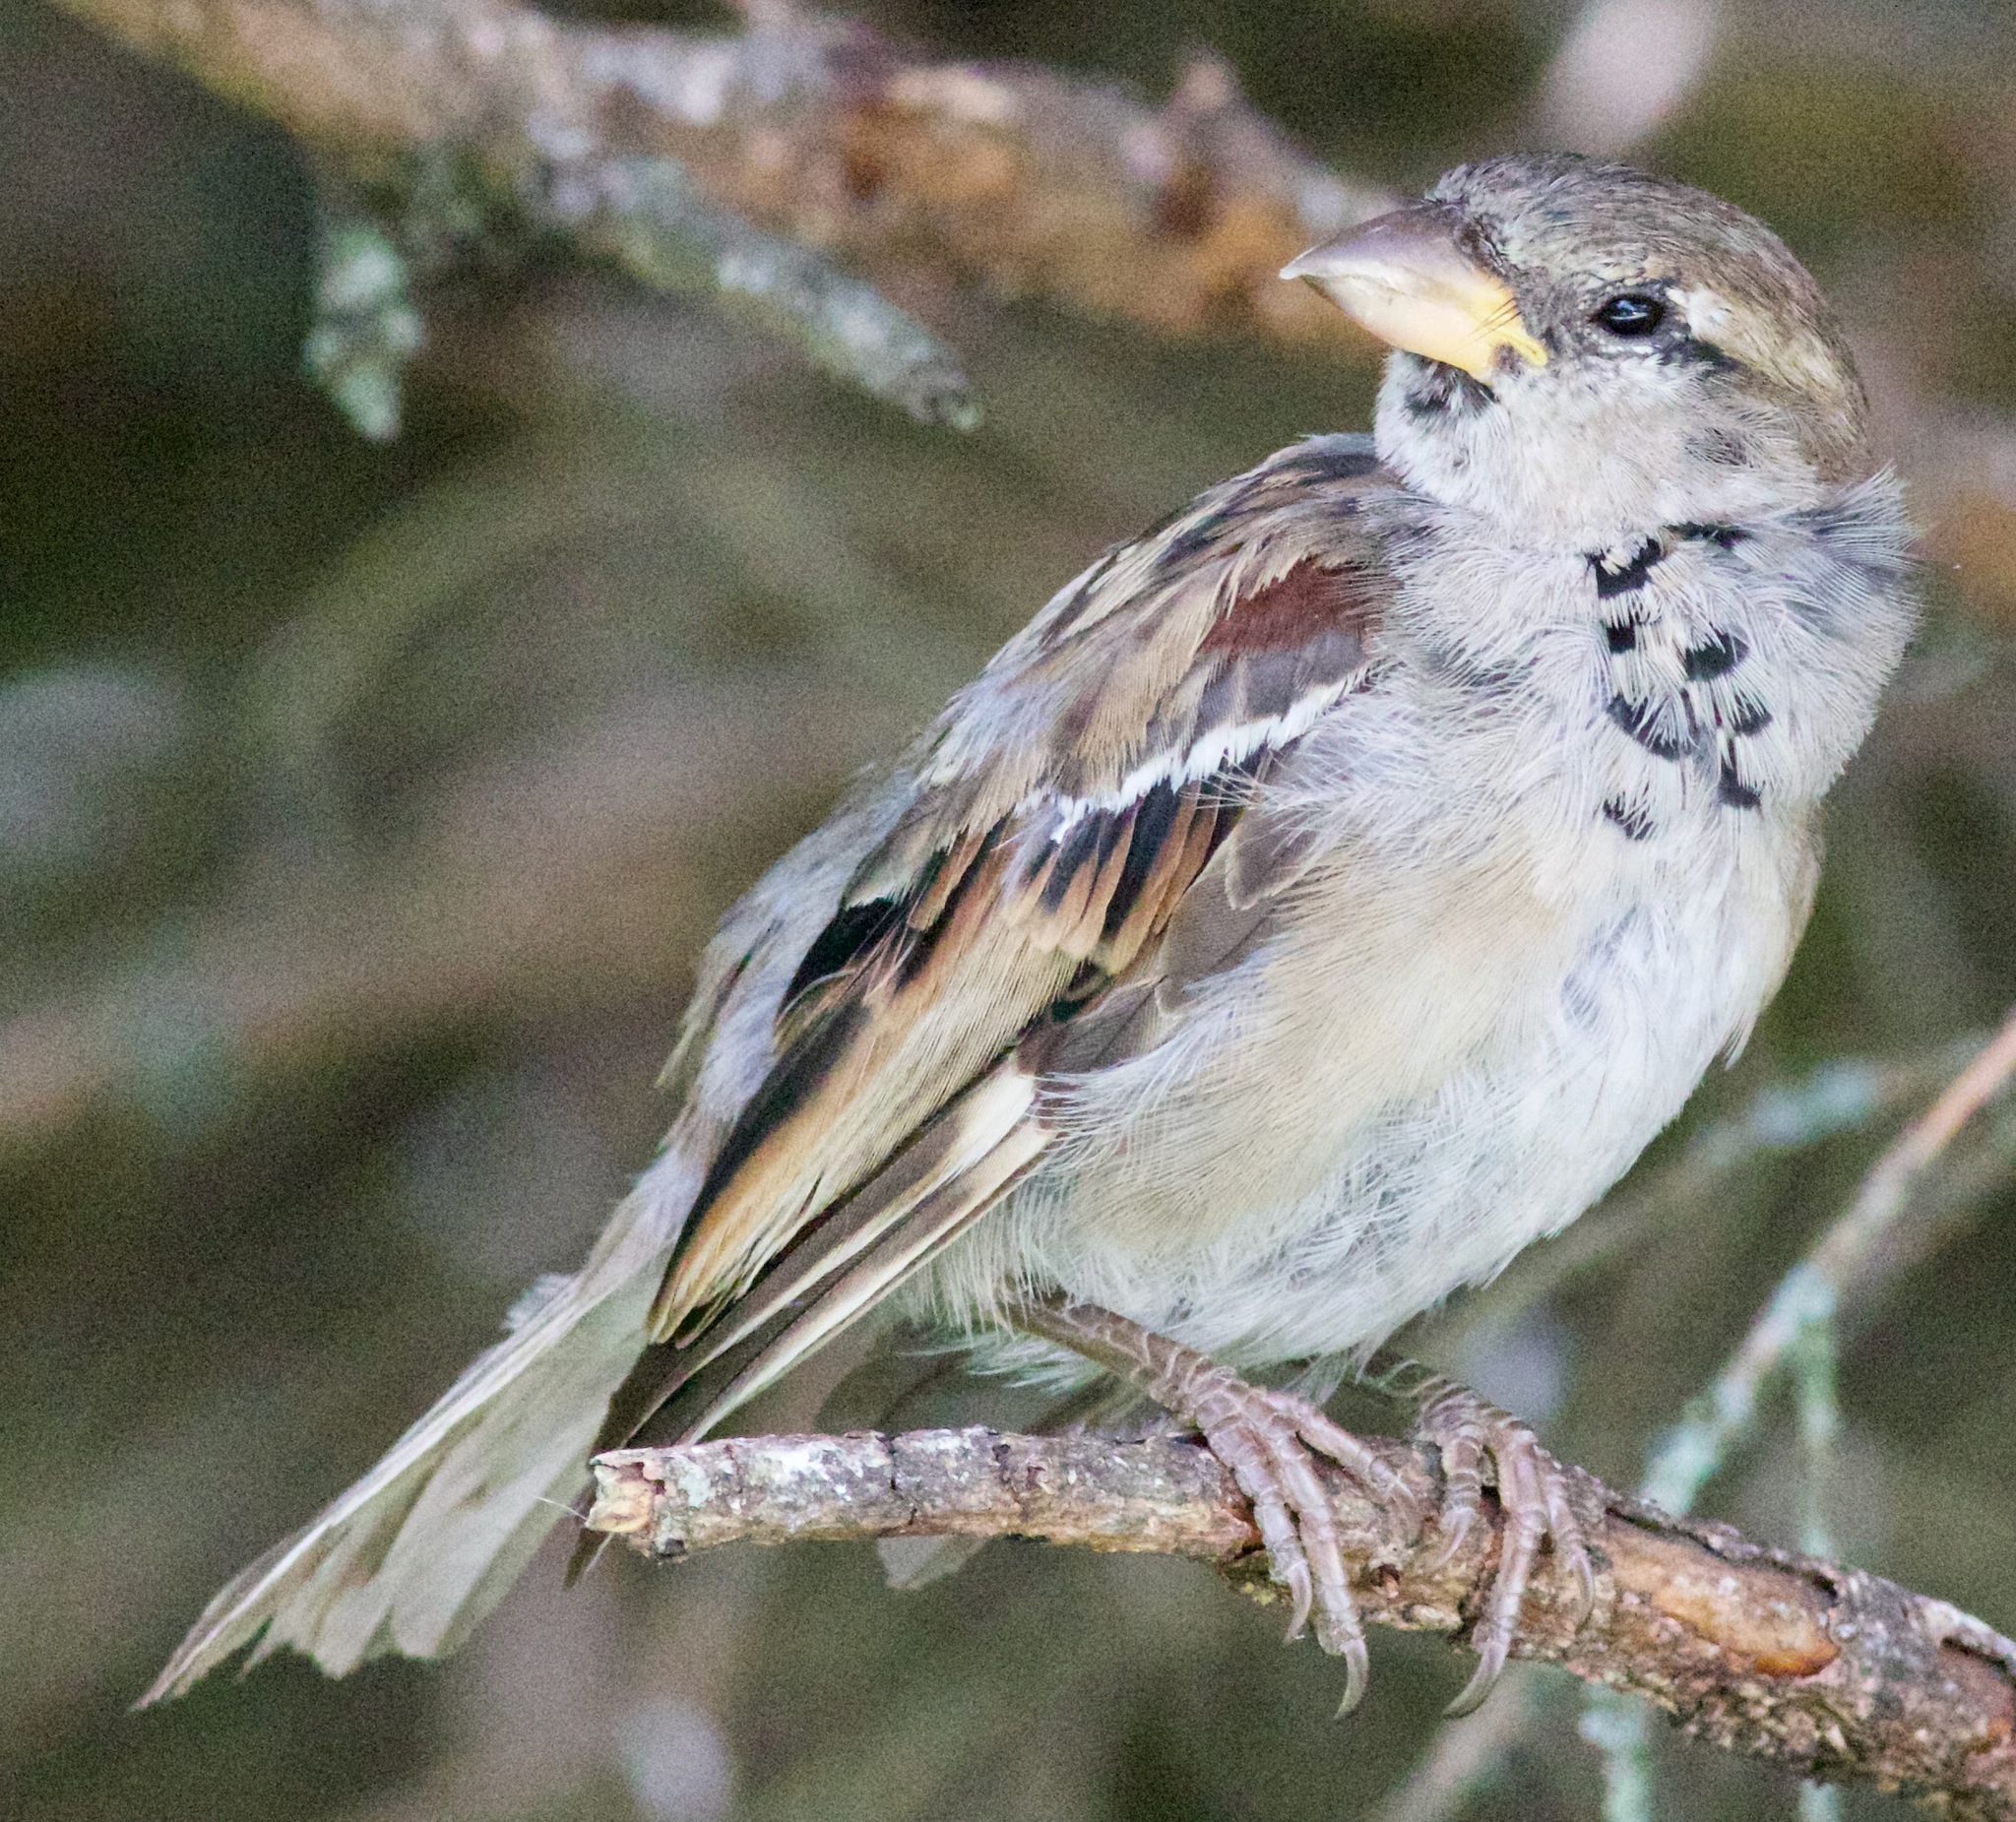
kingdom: Animalia
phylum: Chordata
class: Aves
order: Passeriformes
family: Passeridae
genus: Passer
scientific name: Passer domesticus
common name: House sparrow
